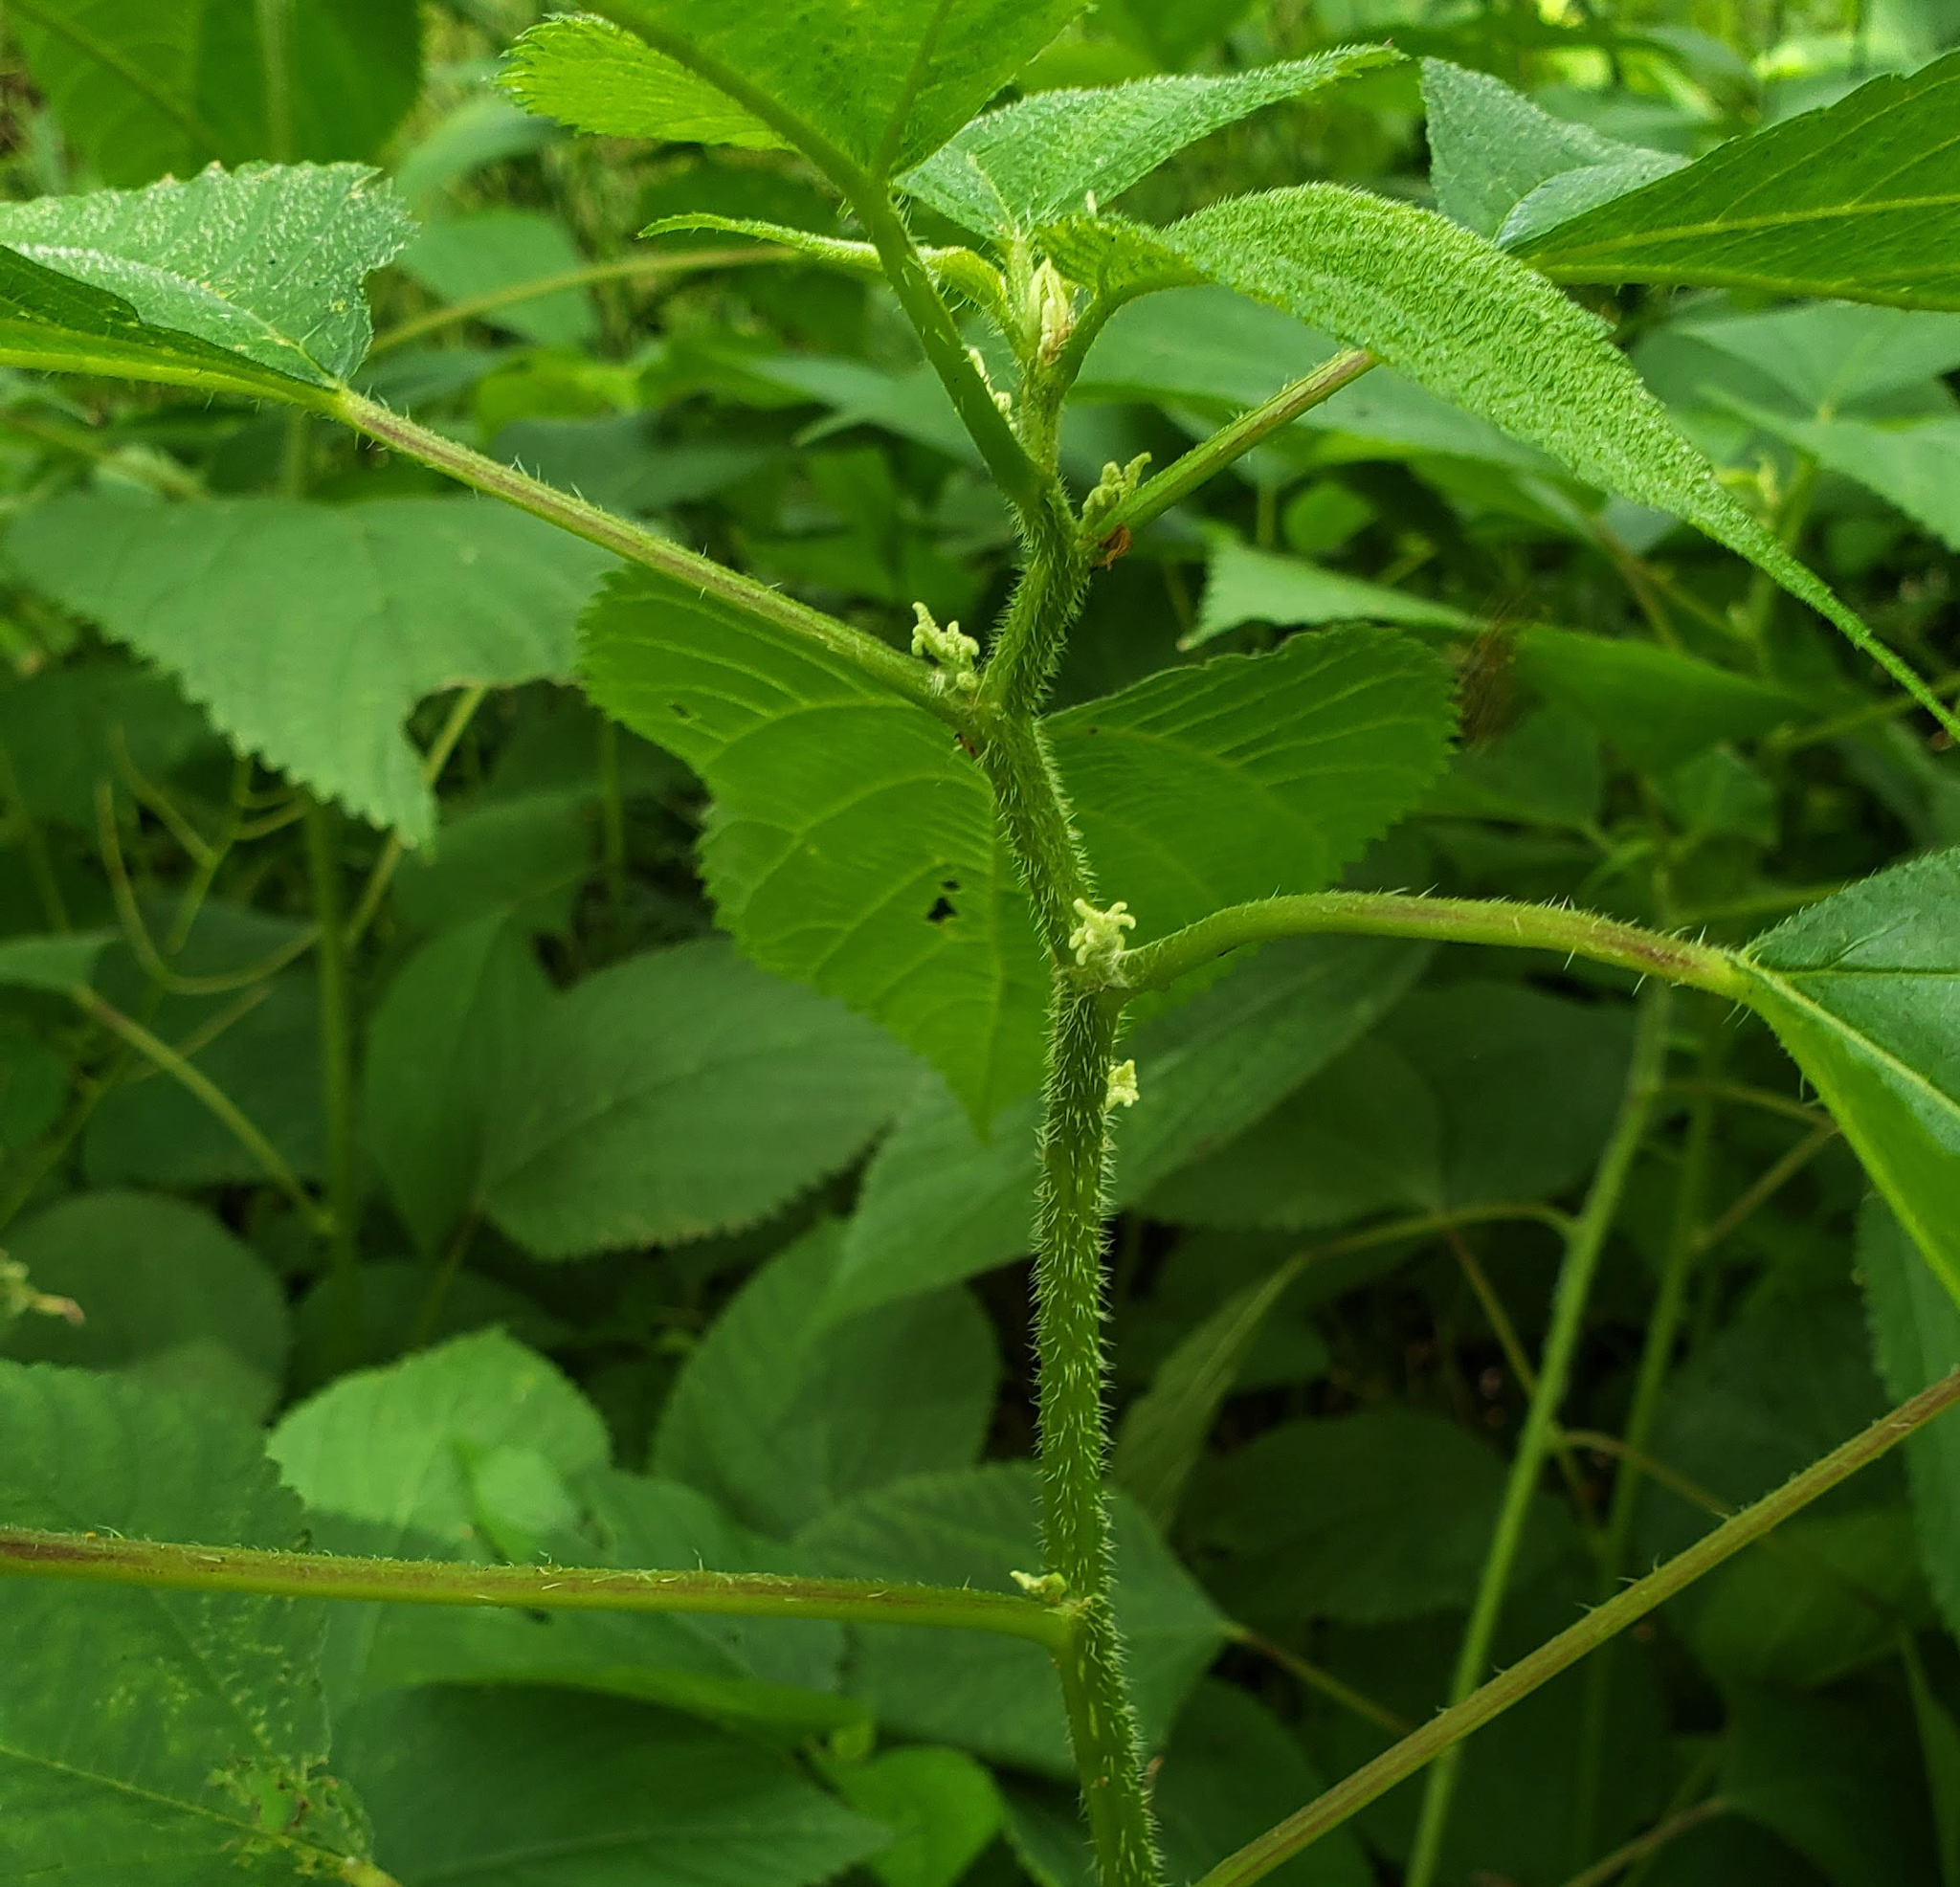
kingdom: Plantae
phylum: Tracheophyta
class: Magnoliopsida
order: Rosales
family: Urticaceae
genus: Laportea
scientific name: Laportea canadensis
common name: Canada nettle
